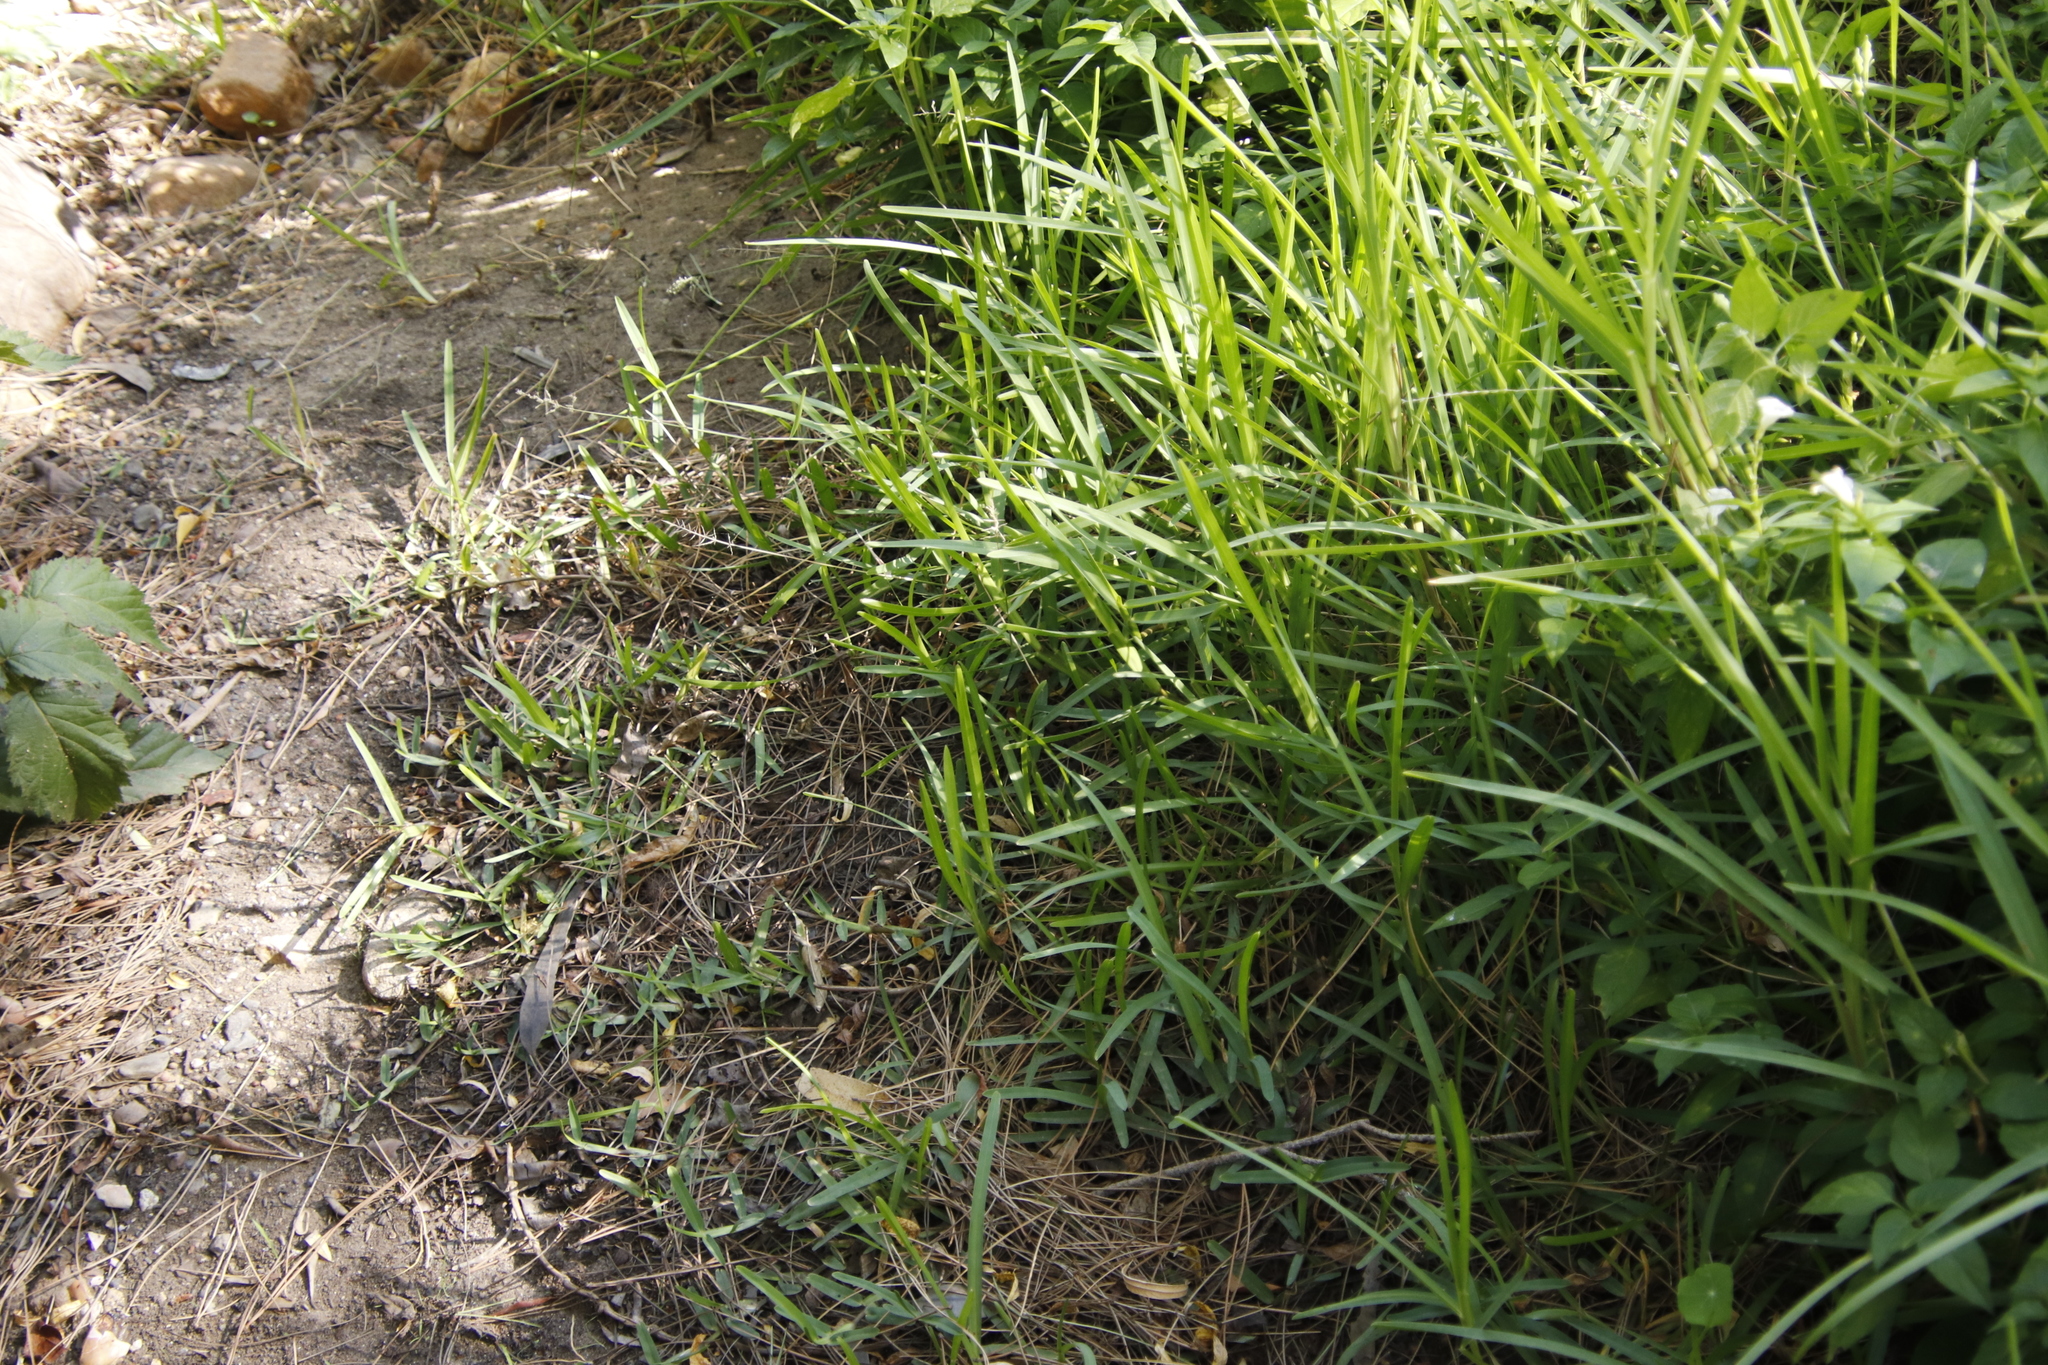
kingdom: Plantae
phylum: Tracheophyta
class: Liliopsida
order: Poales
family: Poaceae
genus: Stenotaphrum
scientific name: Stenotaphrum secundatum
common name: St. augustine grass
